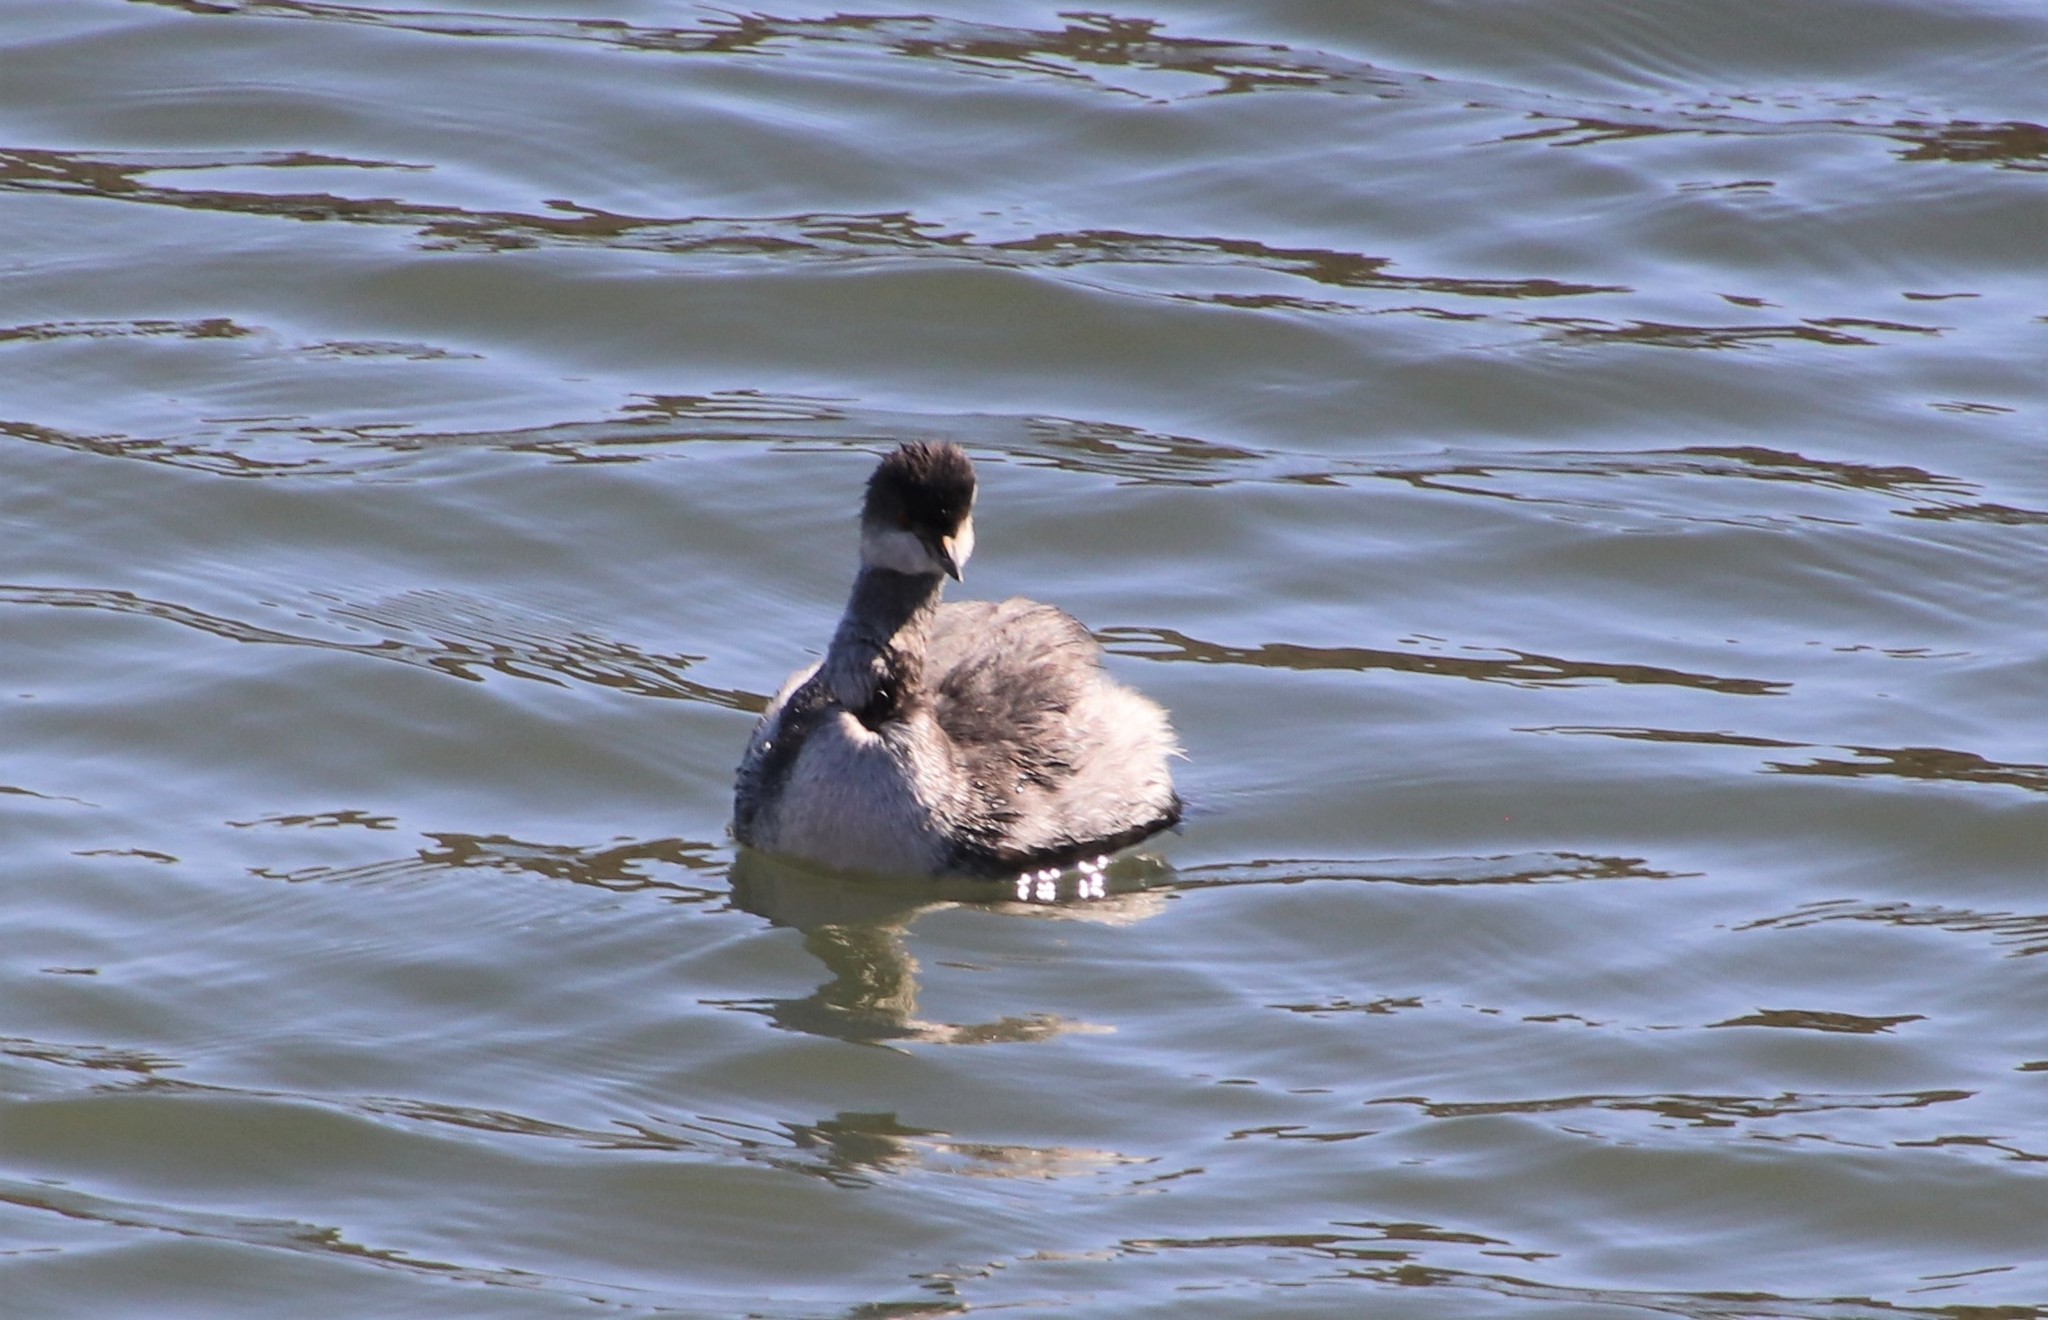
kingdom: Animalia
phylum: Chordata
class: Aves
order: Podicipediformes
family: Podicipedidae
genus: Podiceps
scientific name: Podiceps nigricollis
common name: Black-necked grebe
